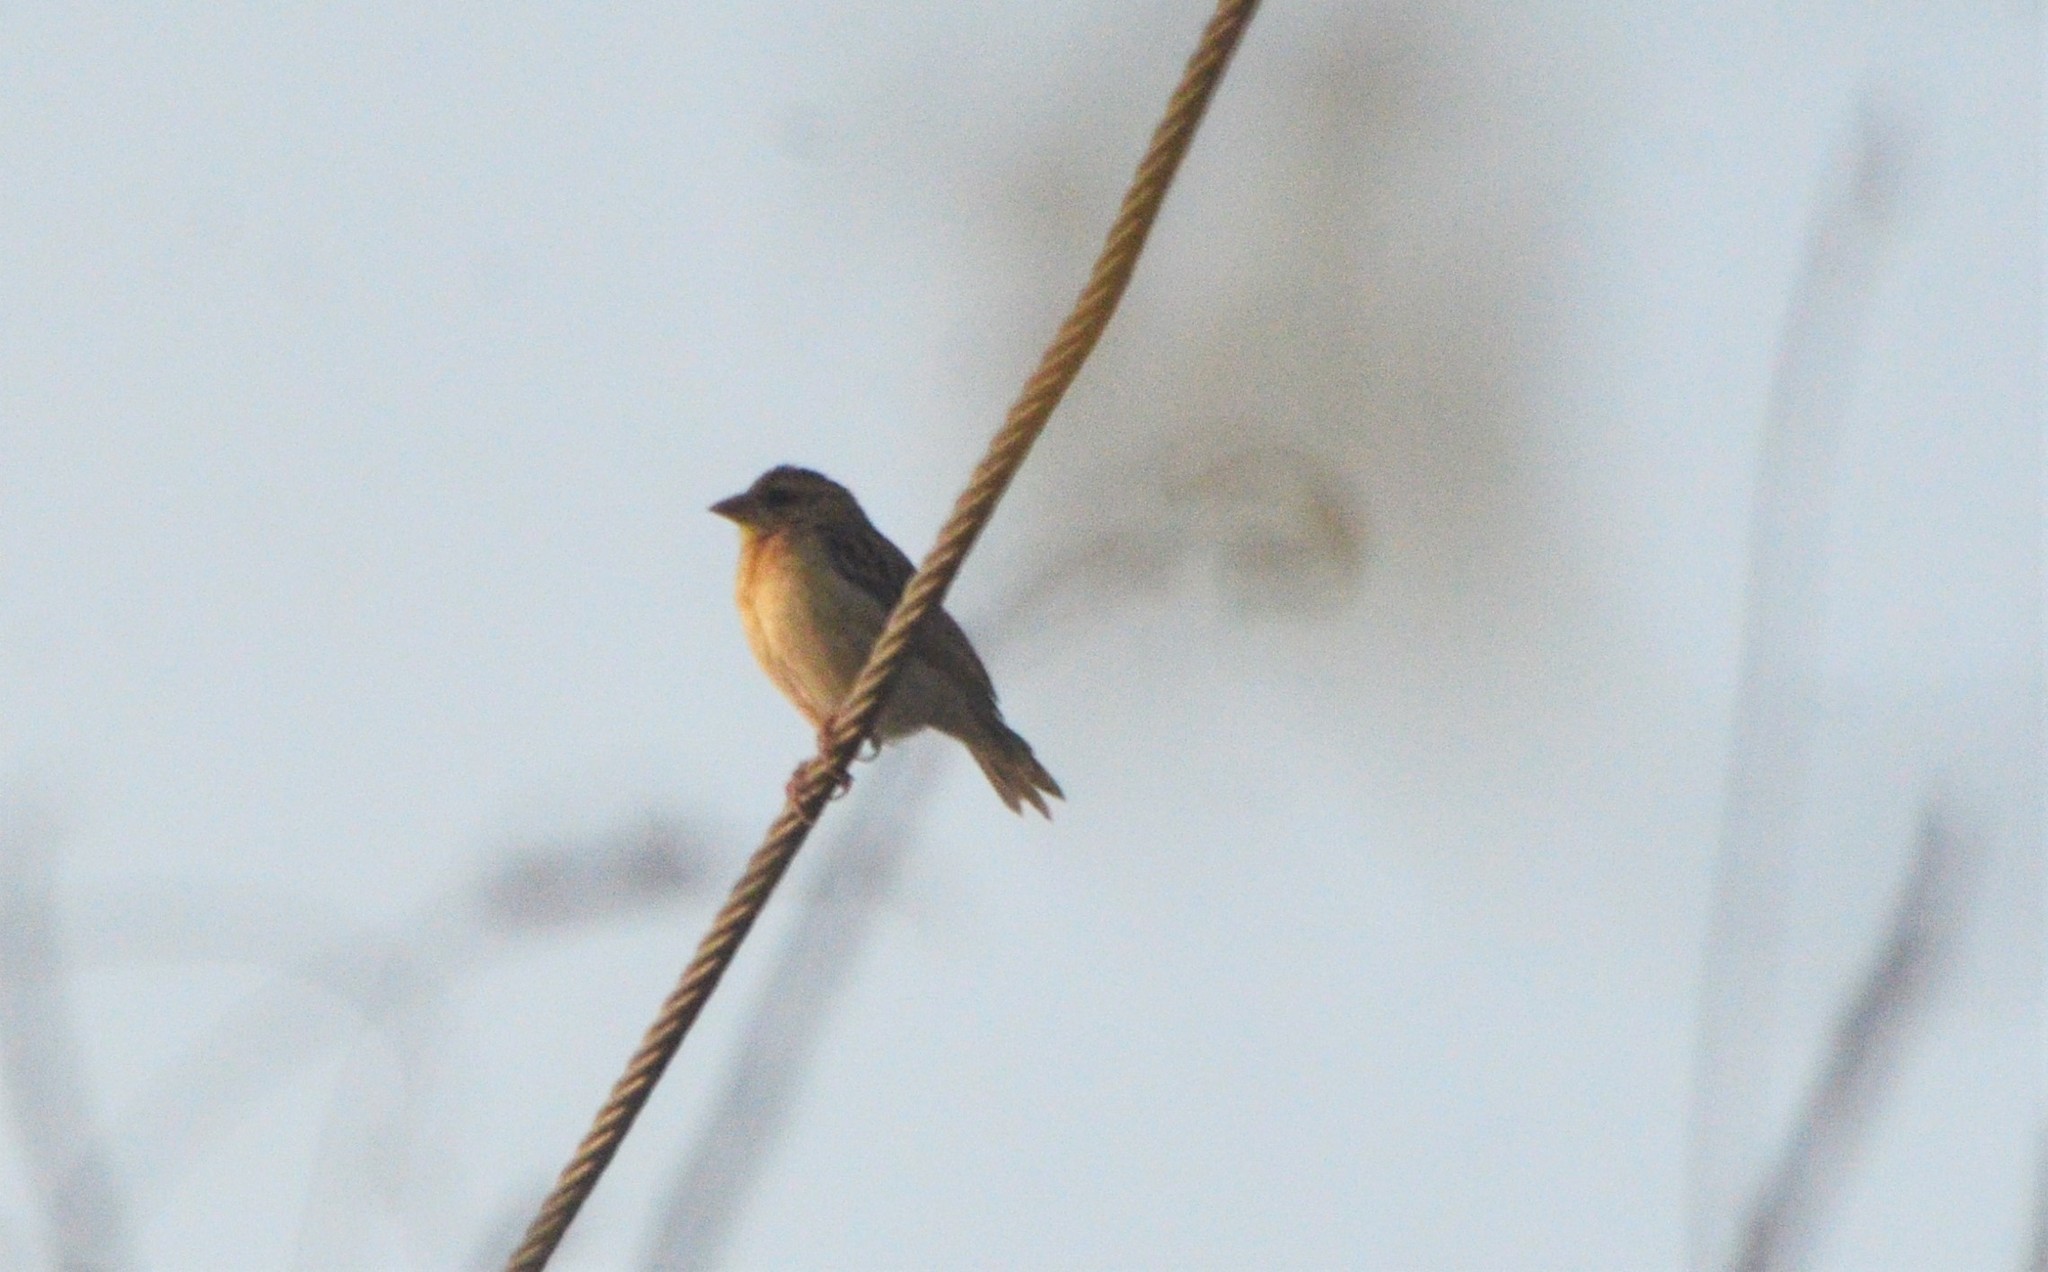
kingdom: Animalia
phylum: Chordata
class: Aves
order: Passeriformes
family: Ploceidae
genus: Ploceus
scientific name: Ploceus philippinus
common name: Baya weaver
